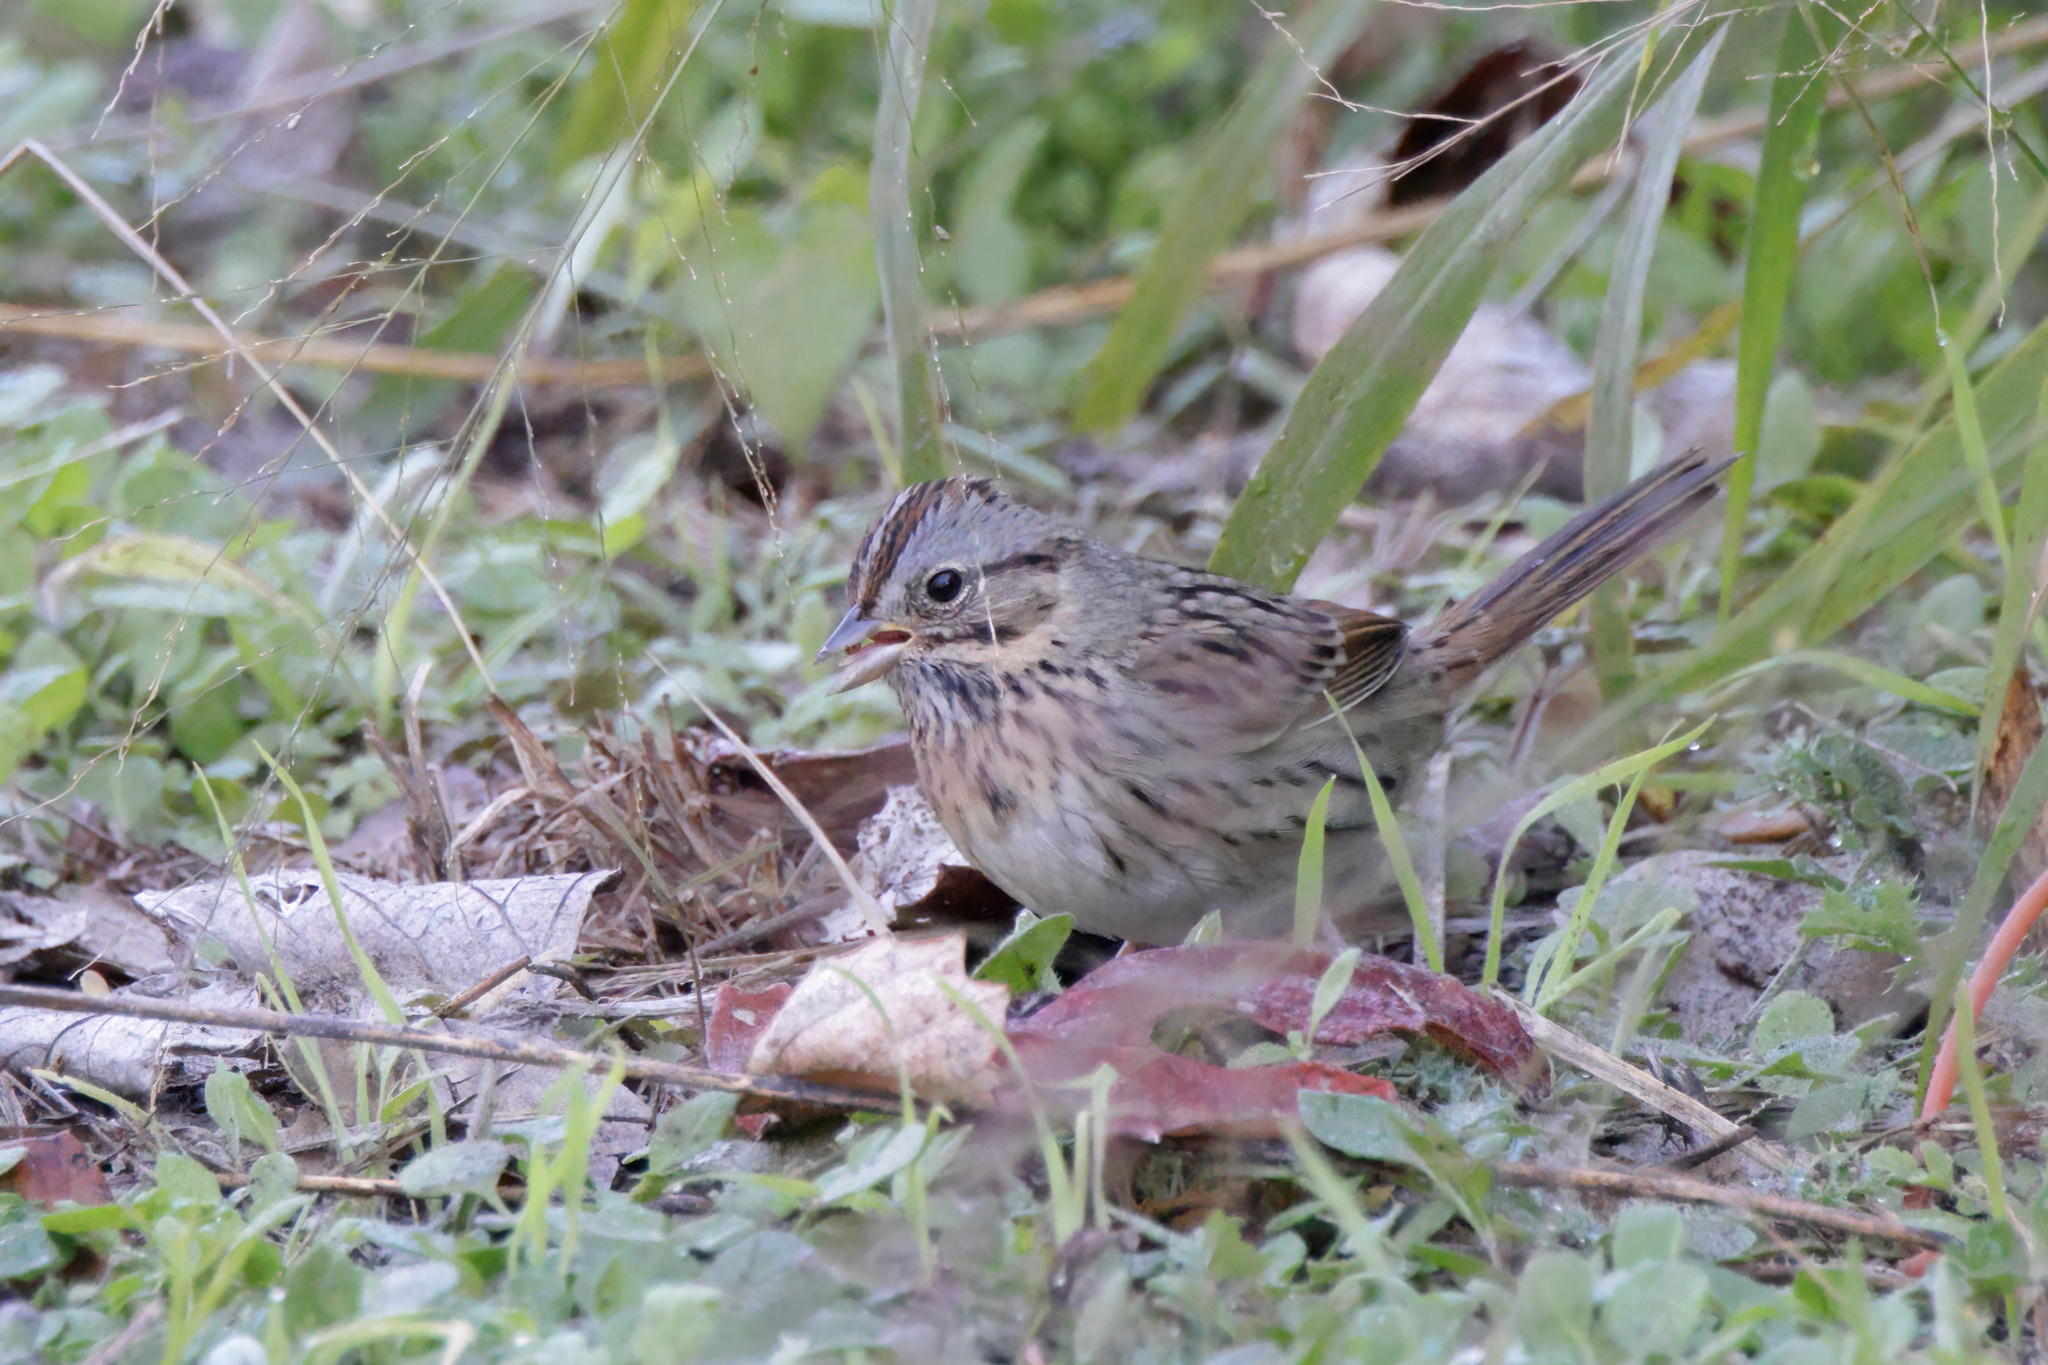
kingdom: Animalia
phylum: Chordata
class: Aves
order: Passeriformes
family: Passerellidae
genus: Melospiza
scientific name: Melospiza lincolnii
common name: Lincoln's sparrow
